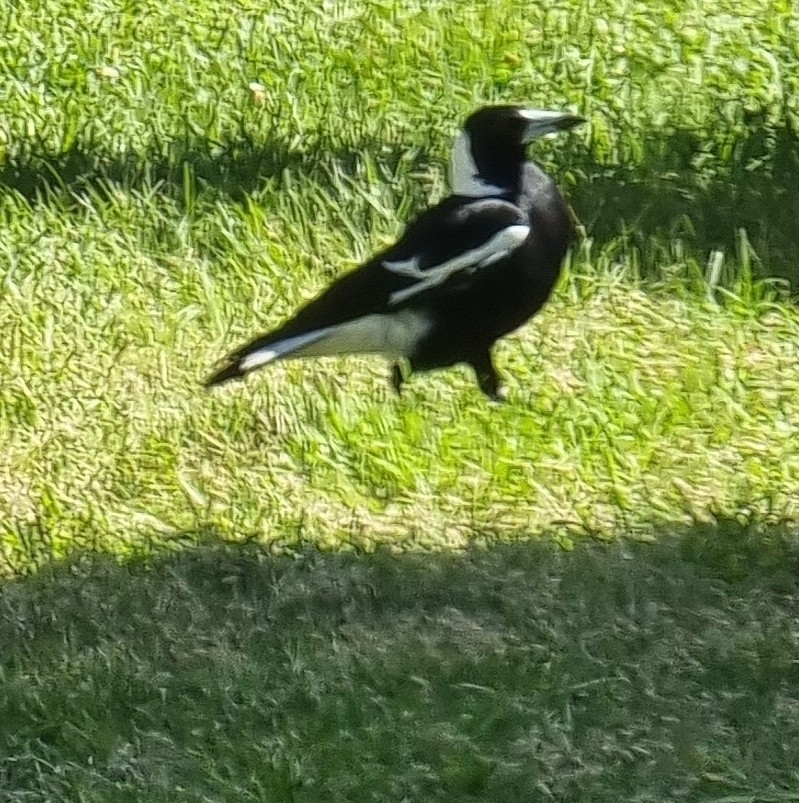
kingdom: Animalia
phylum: Chordata
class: Aves
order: Passeriformes
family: Cracticidae
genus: Gymnorhina
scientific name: Gymnorhina tibicen
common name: Australian magpie
